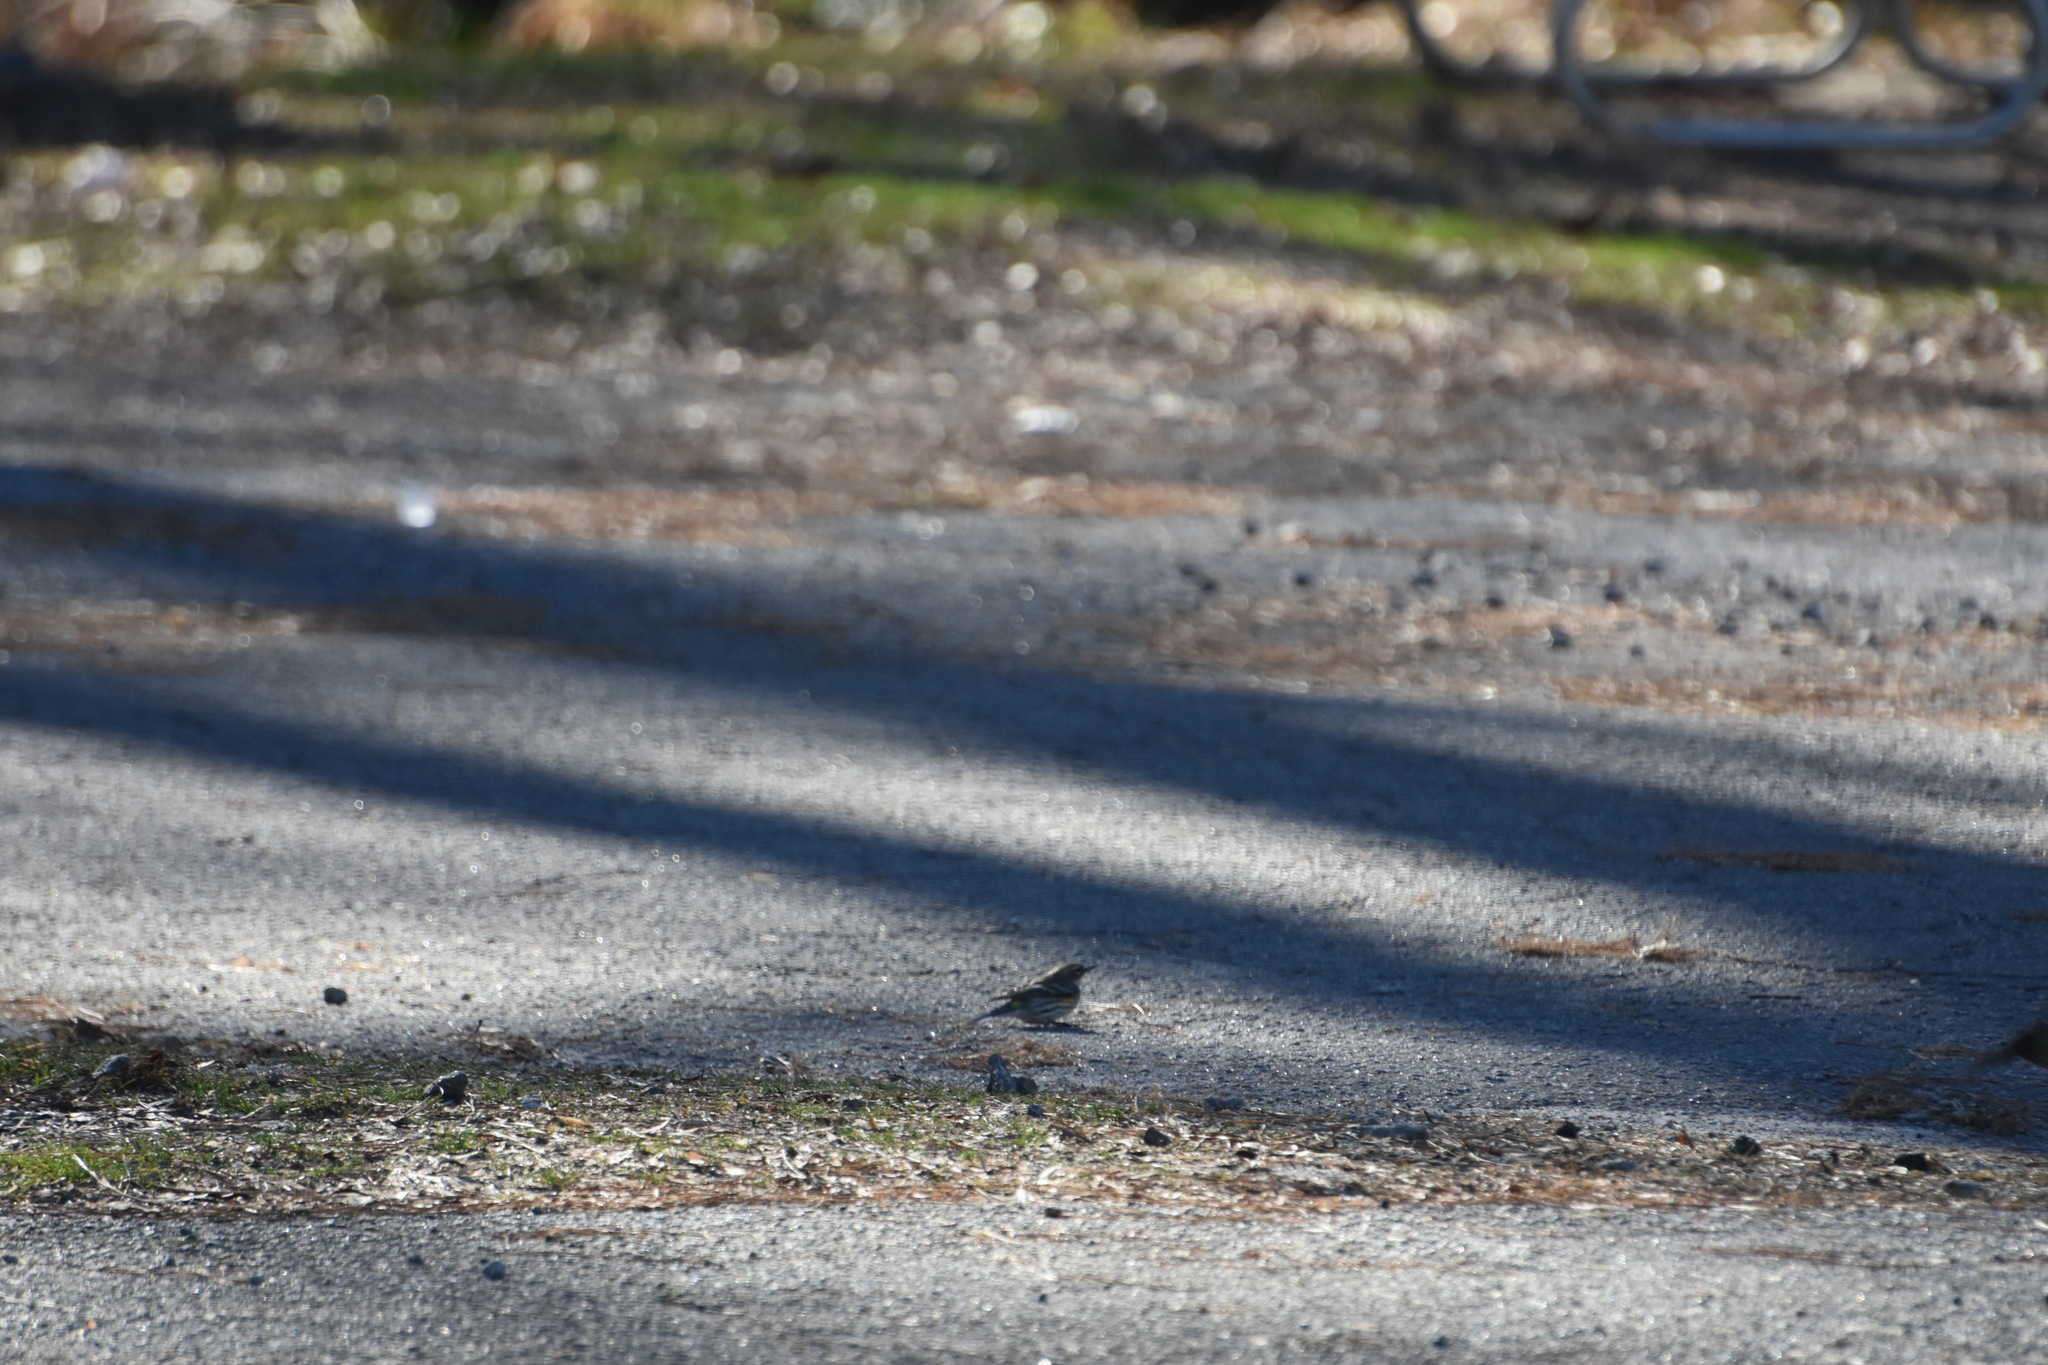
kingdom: Animalia
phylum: Chordata
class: Aves
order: Passeriformes
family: Parulidae
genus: Setophaga
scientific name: Setophaga coronata
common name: Myrtle warbler
